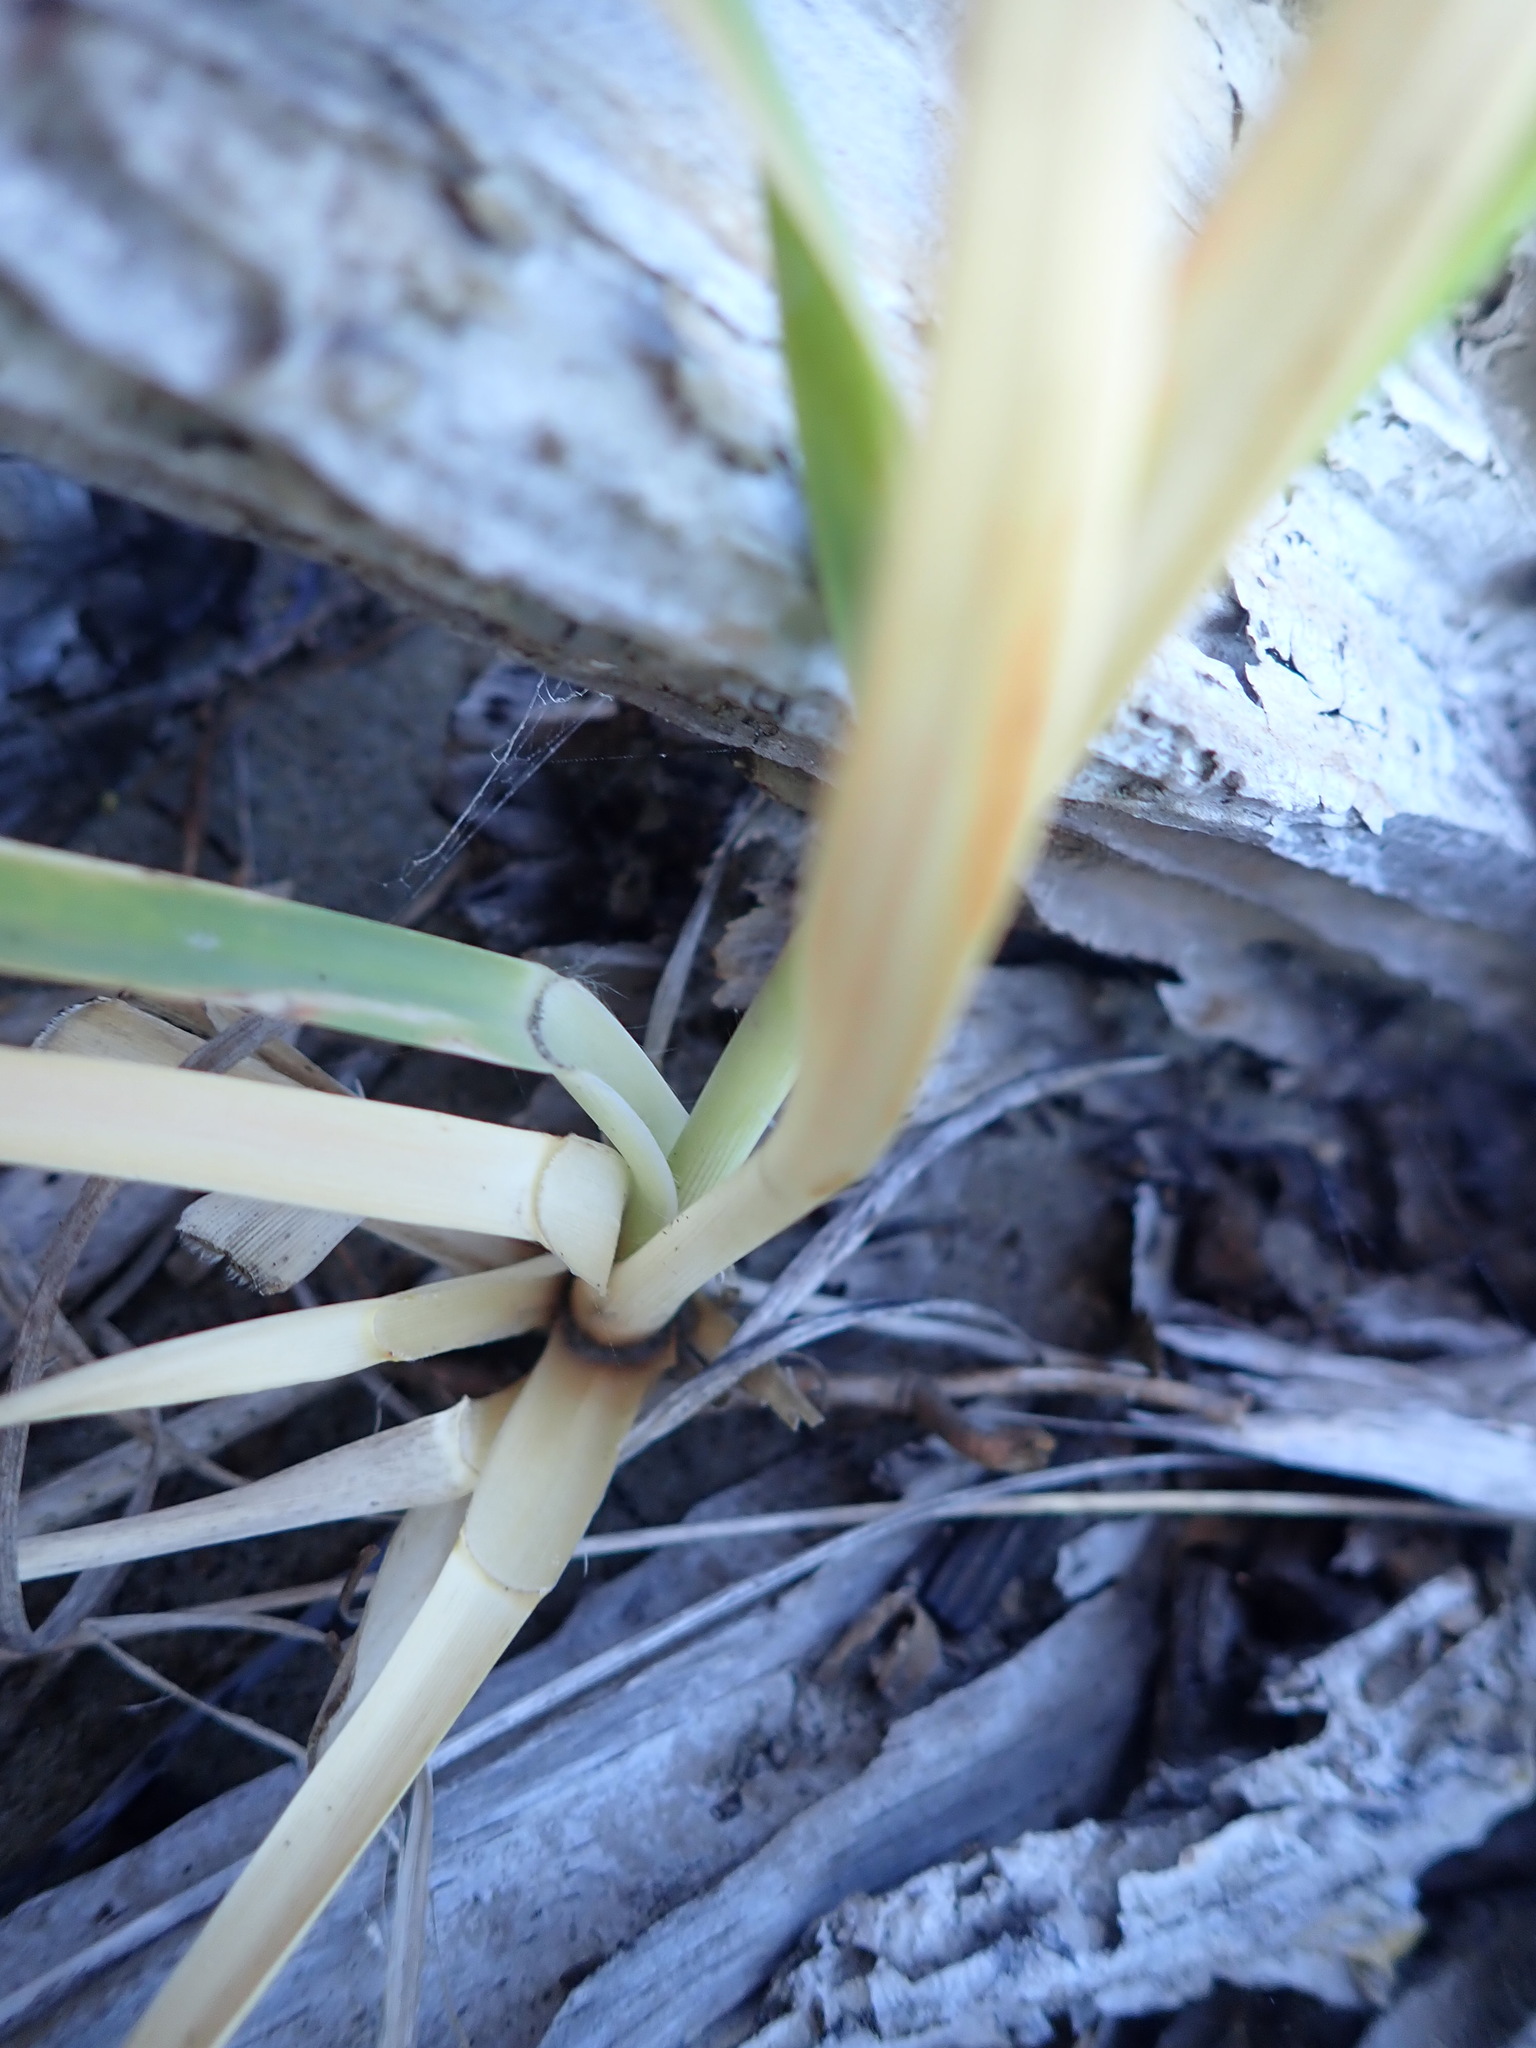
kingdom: Plantae
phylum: Tracheophyta
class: Liliopsida
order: Poales
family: Poaceae
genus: Cortaderia
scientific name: Cortaderia selloana
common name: Uruguayan pampas grass
